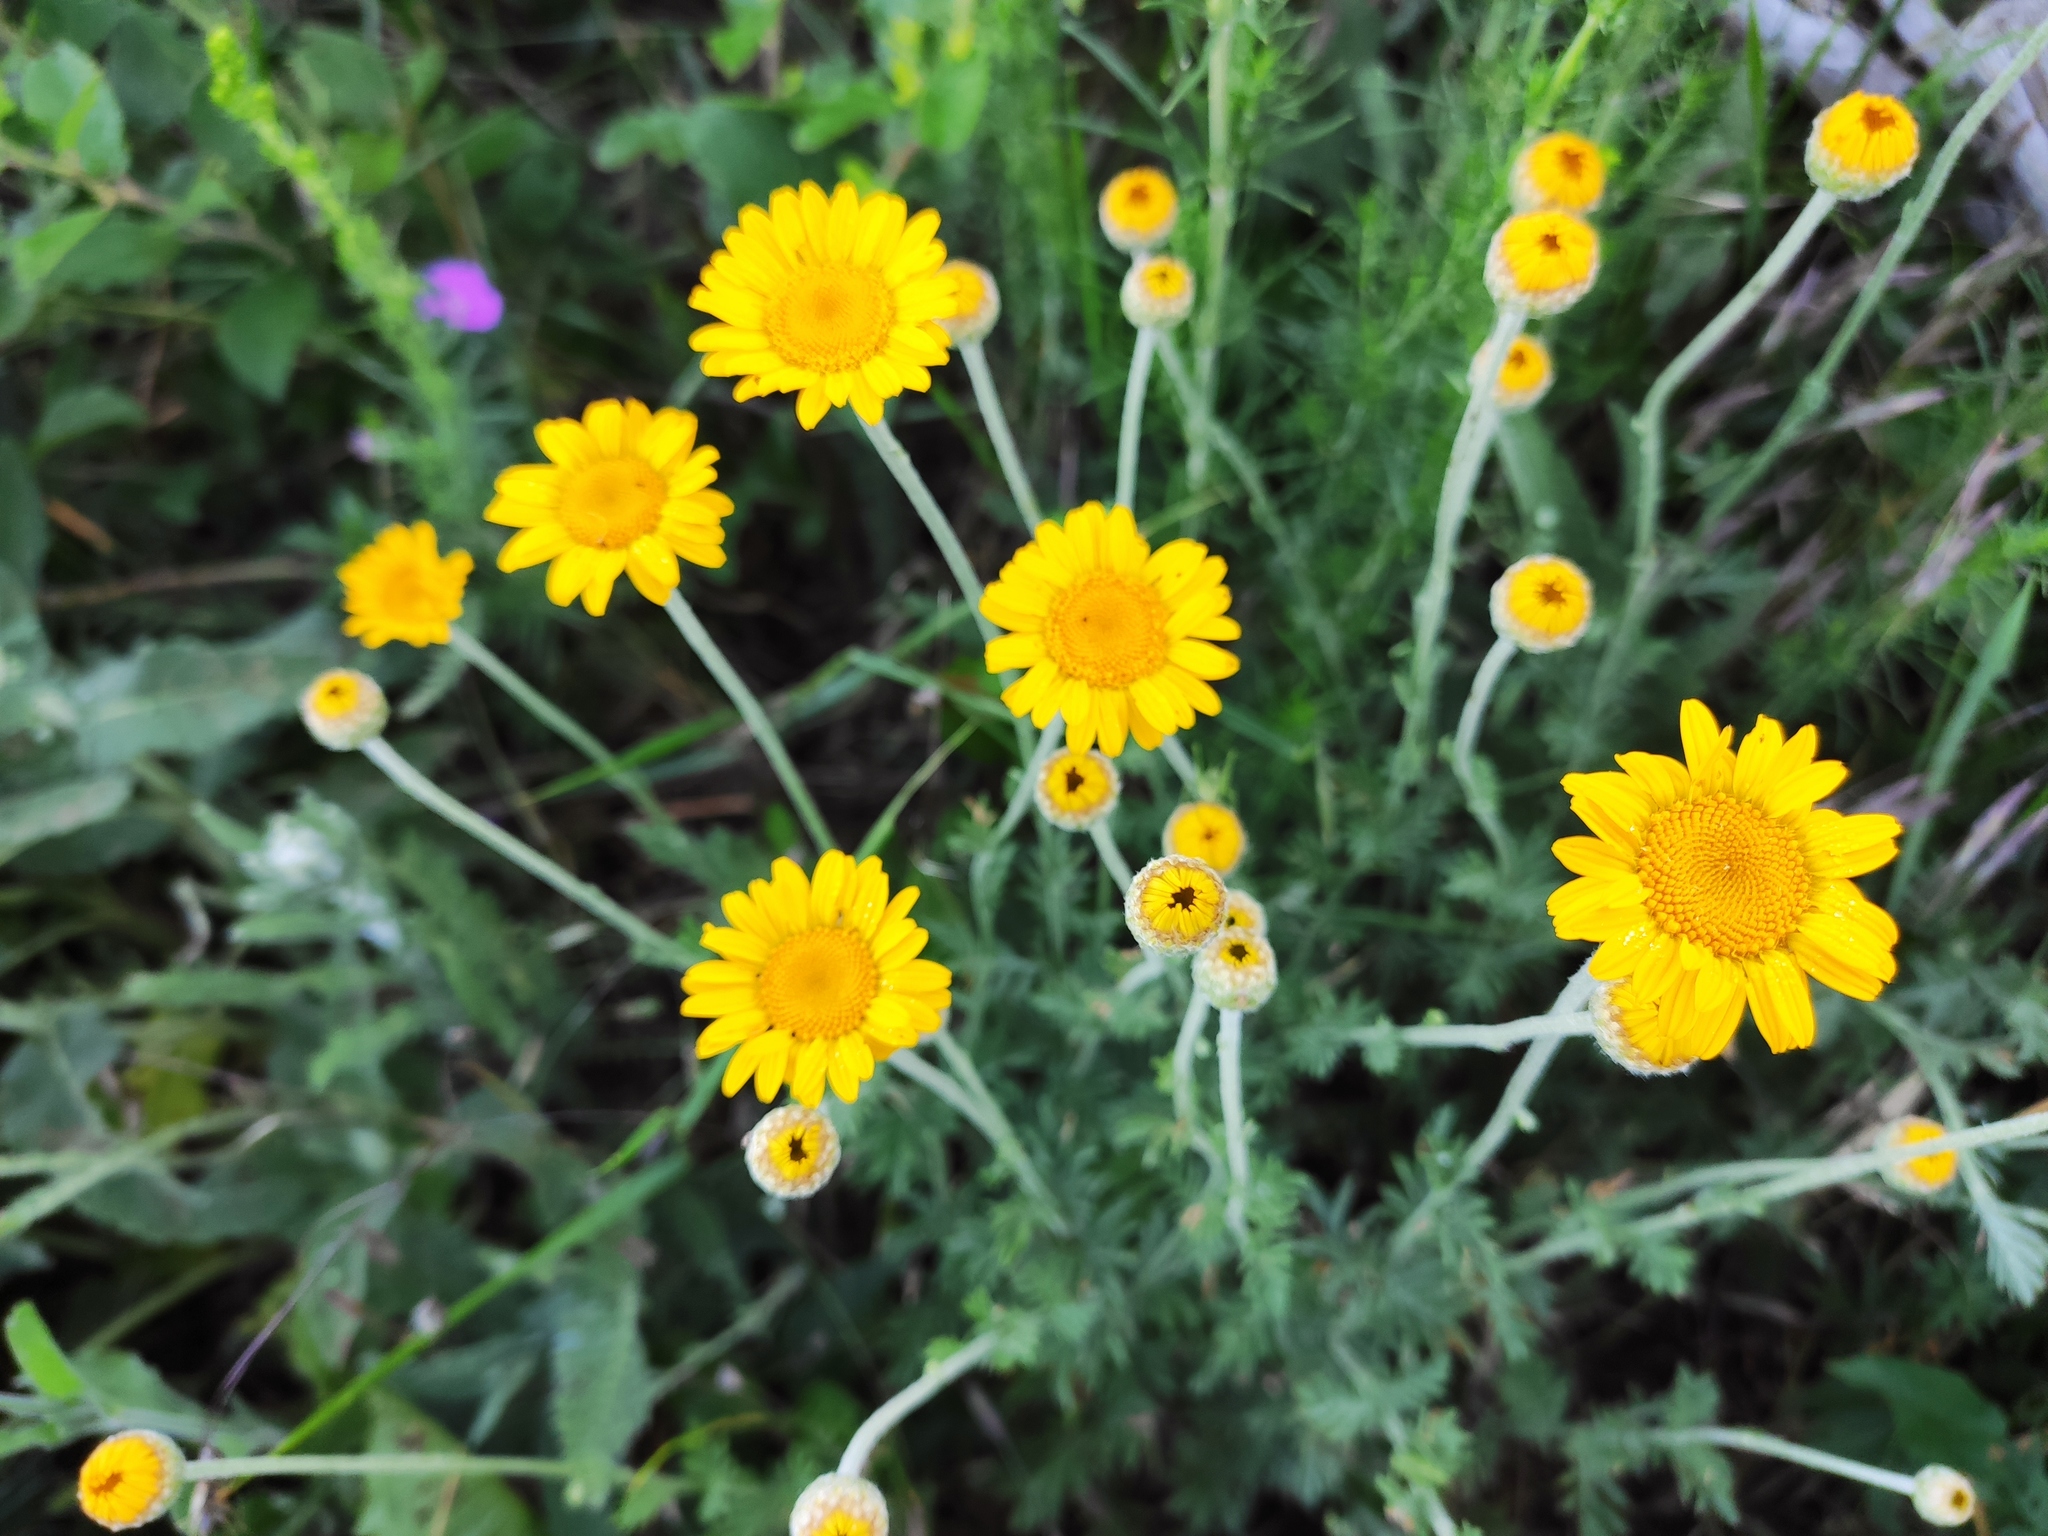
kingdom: Plantae
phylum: Tracheophyta
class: Magnoliopsida
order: Asterales
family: Asteraceae
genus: Cota
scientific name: Cota tinctoria
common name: Golden chamomile
